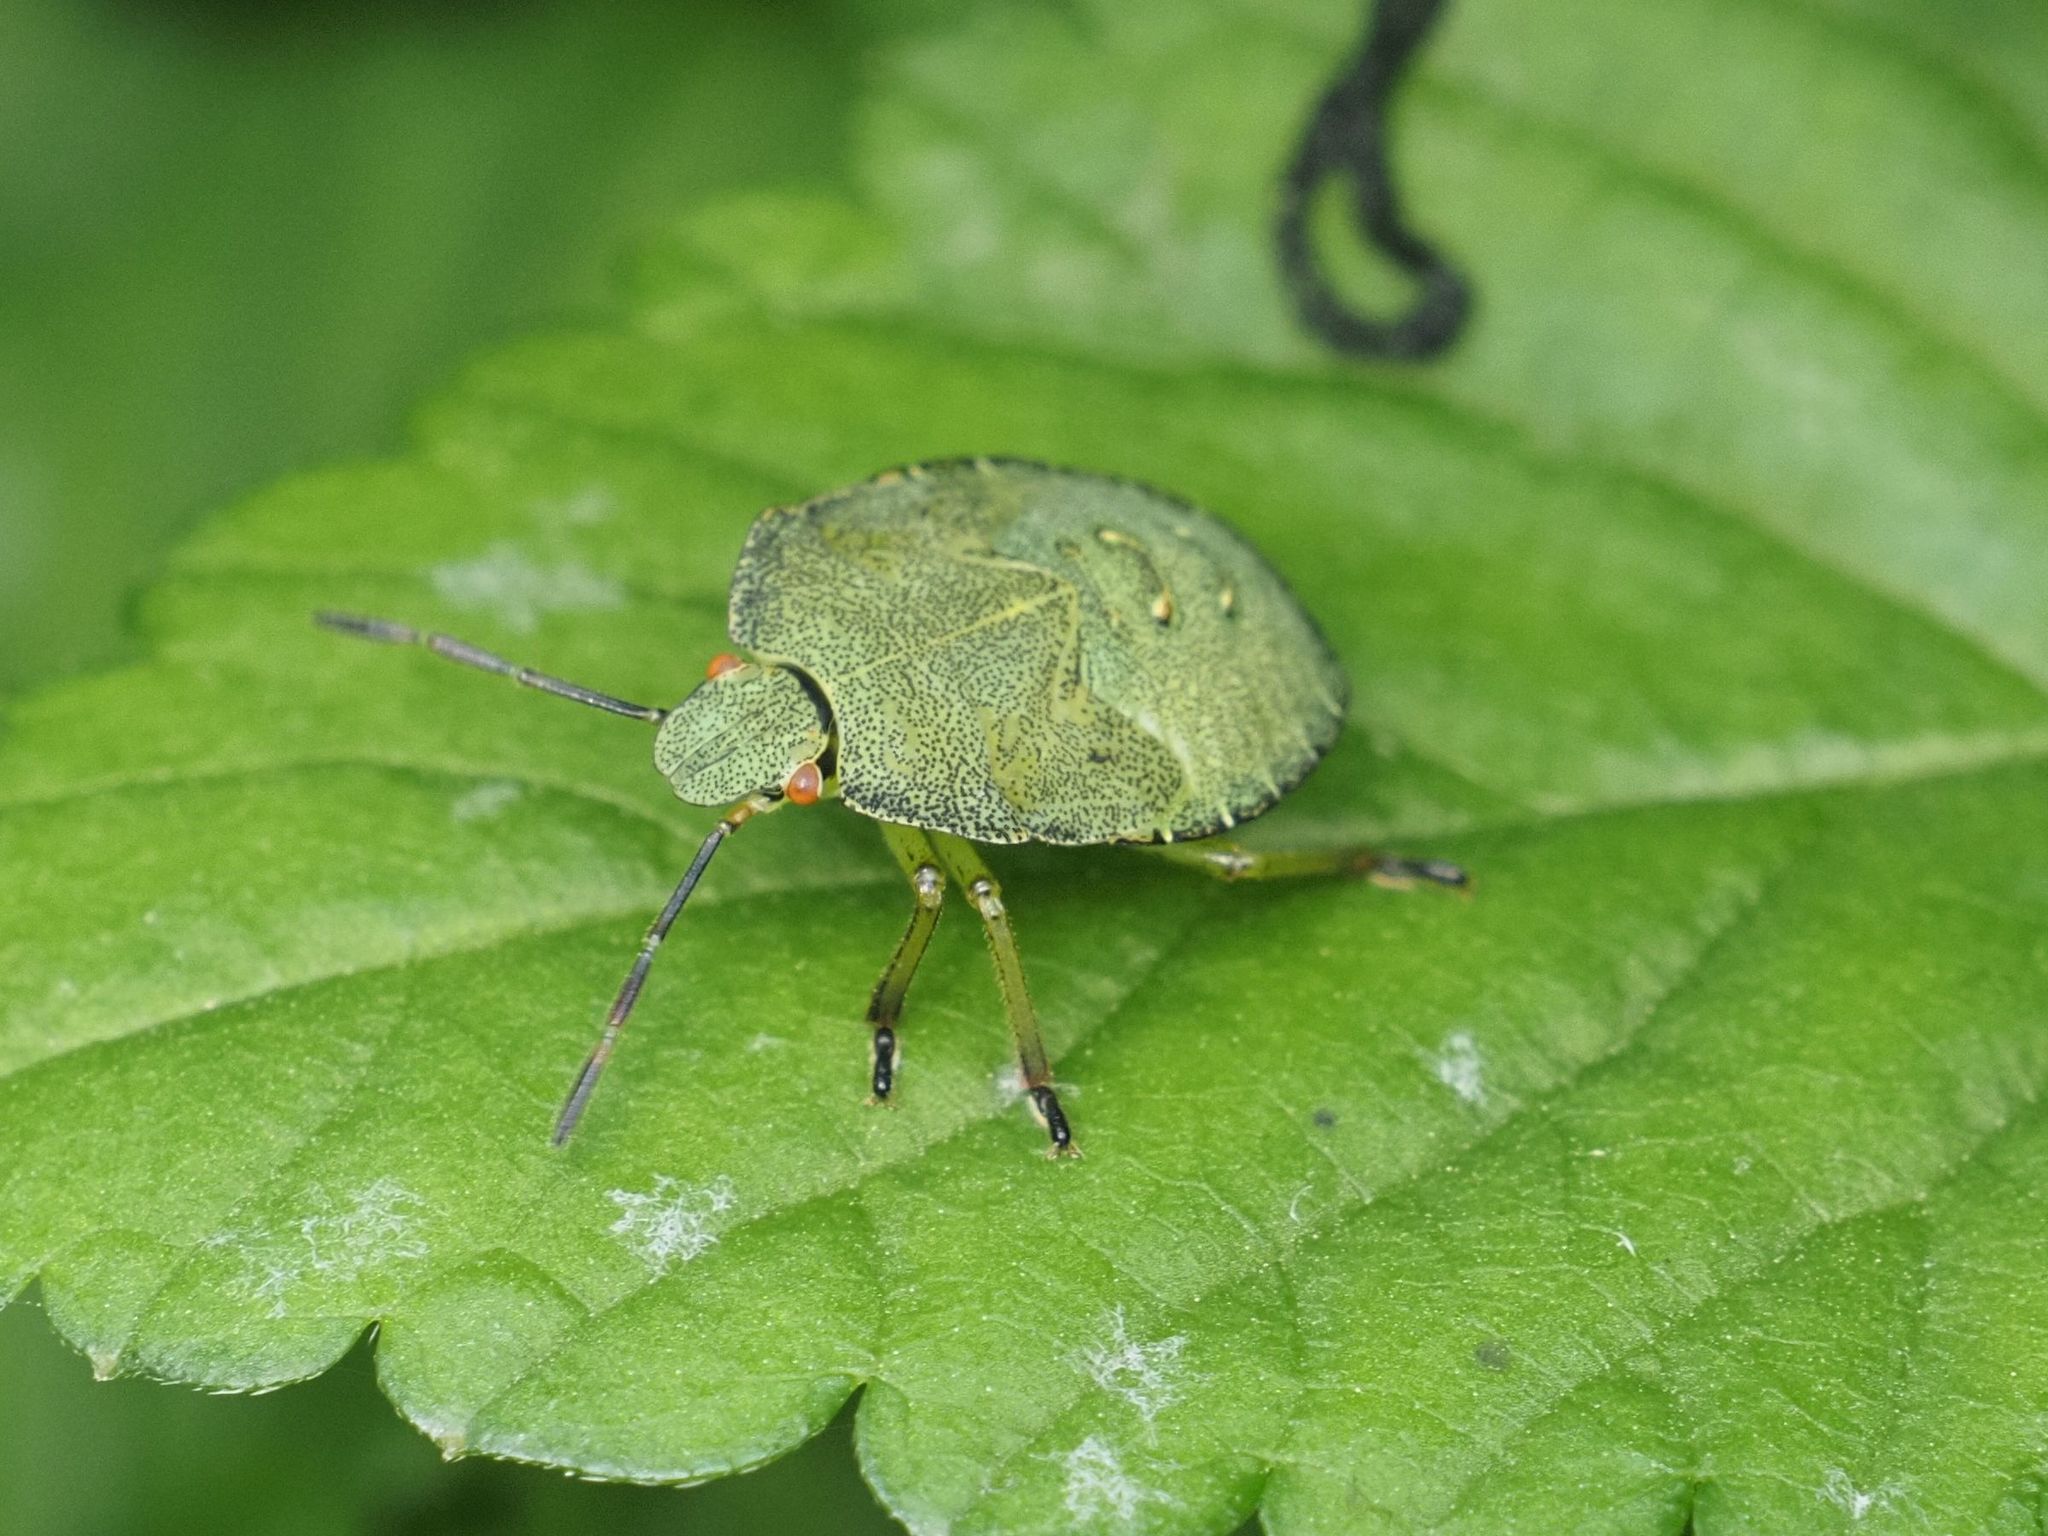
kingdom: Animalia
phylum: Arthropoda
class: Insecta
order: Hemiptera
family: Pentatomidae
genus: Palomena
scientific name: Palomena prasina
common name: Green shieldbug
